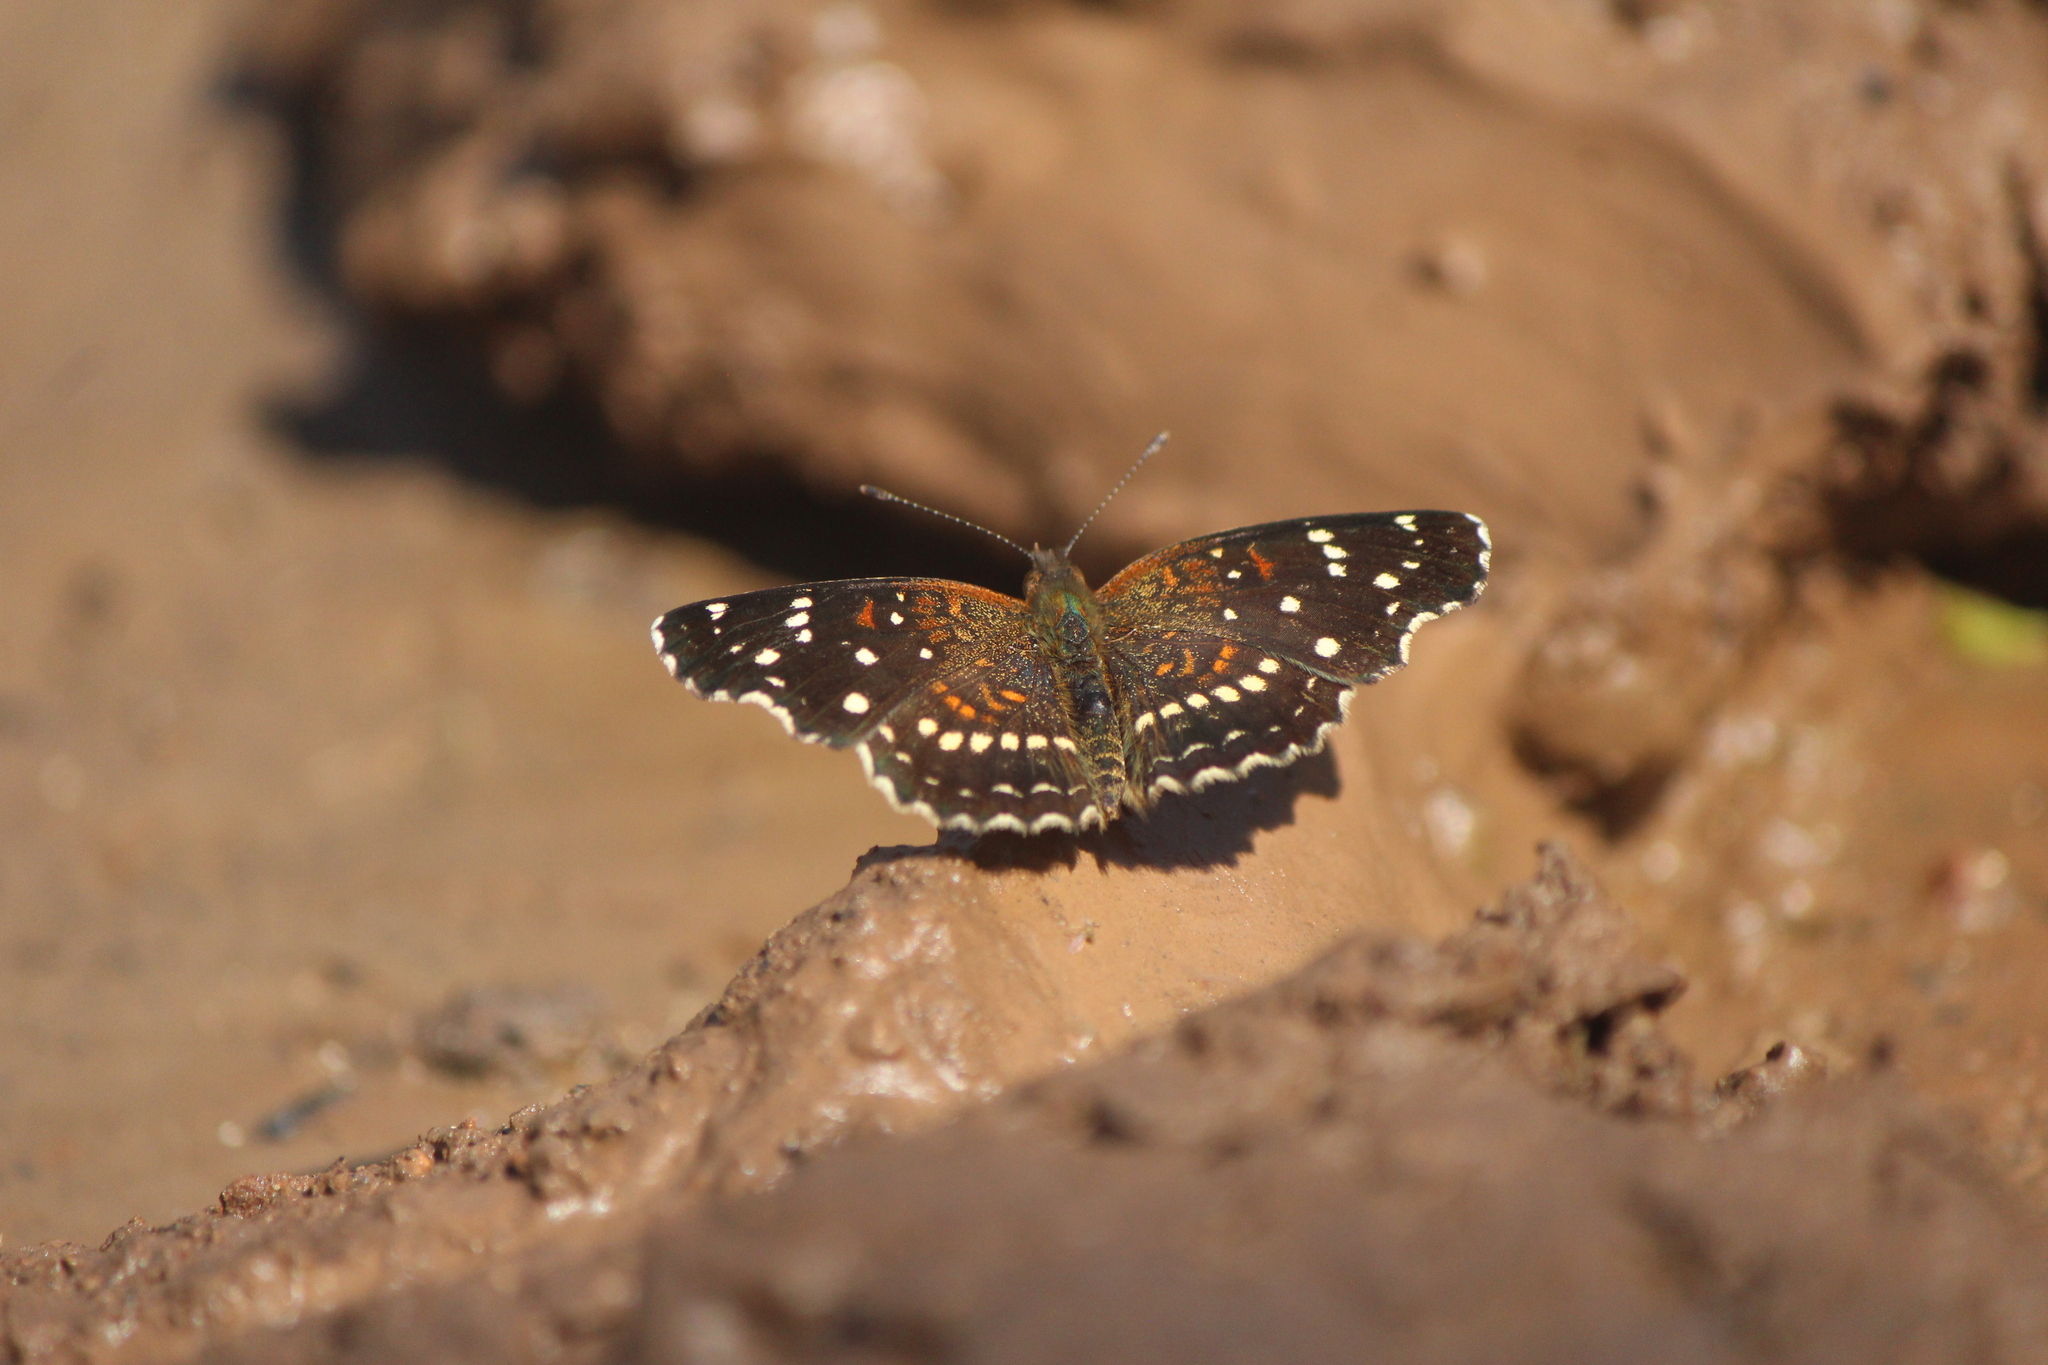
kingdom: Animalia
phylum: Arthropoda
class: Insecta
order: Lepidoptera
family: Nymphalidae
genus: Anthanassa
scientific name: Anthanassa texana
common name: Texan crescent
